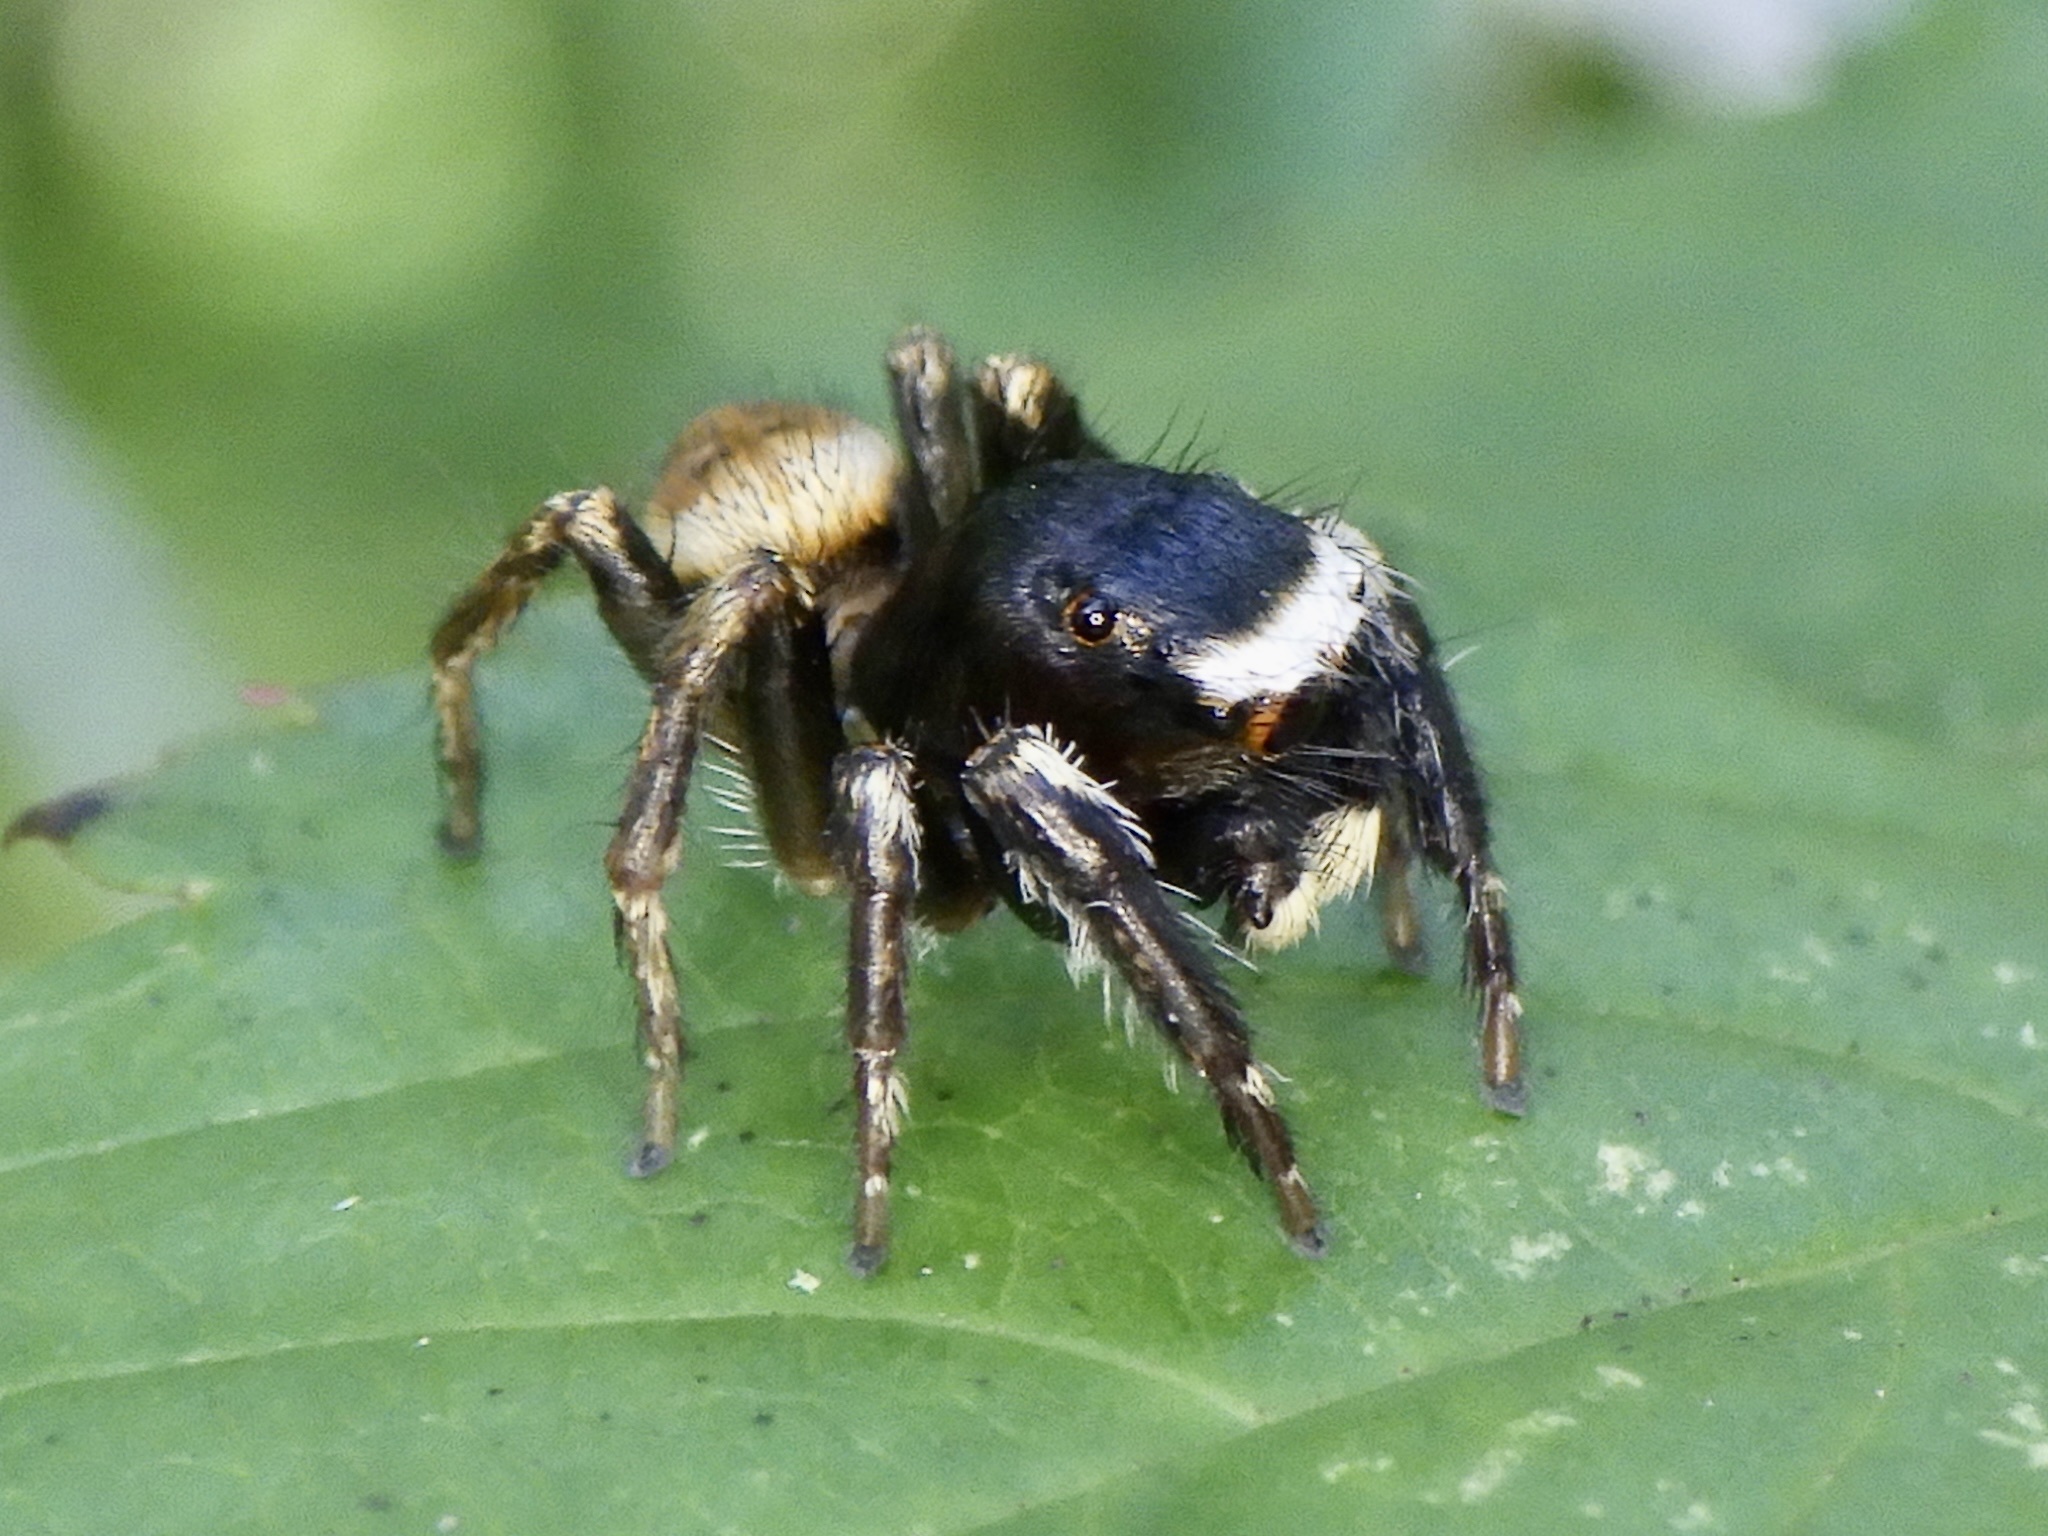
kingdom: Animalia
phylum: Arthropoda
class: Arachnida
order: Araneae
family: Salticidae
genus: Evarcha
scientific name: Evarcha albaria
